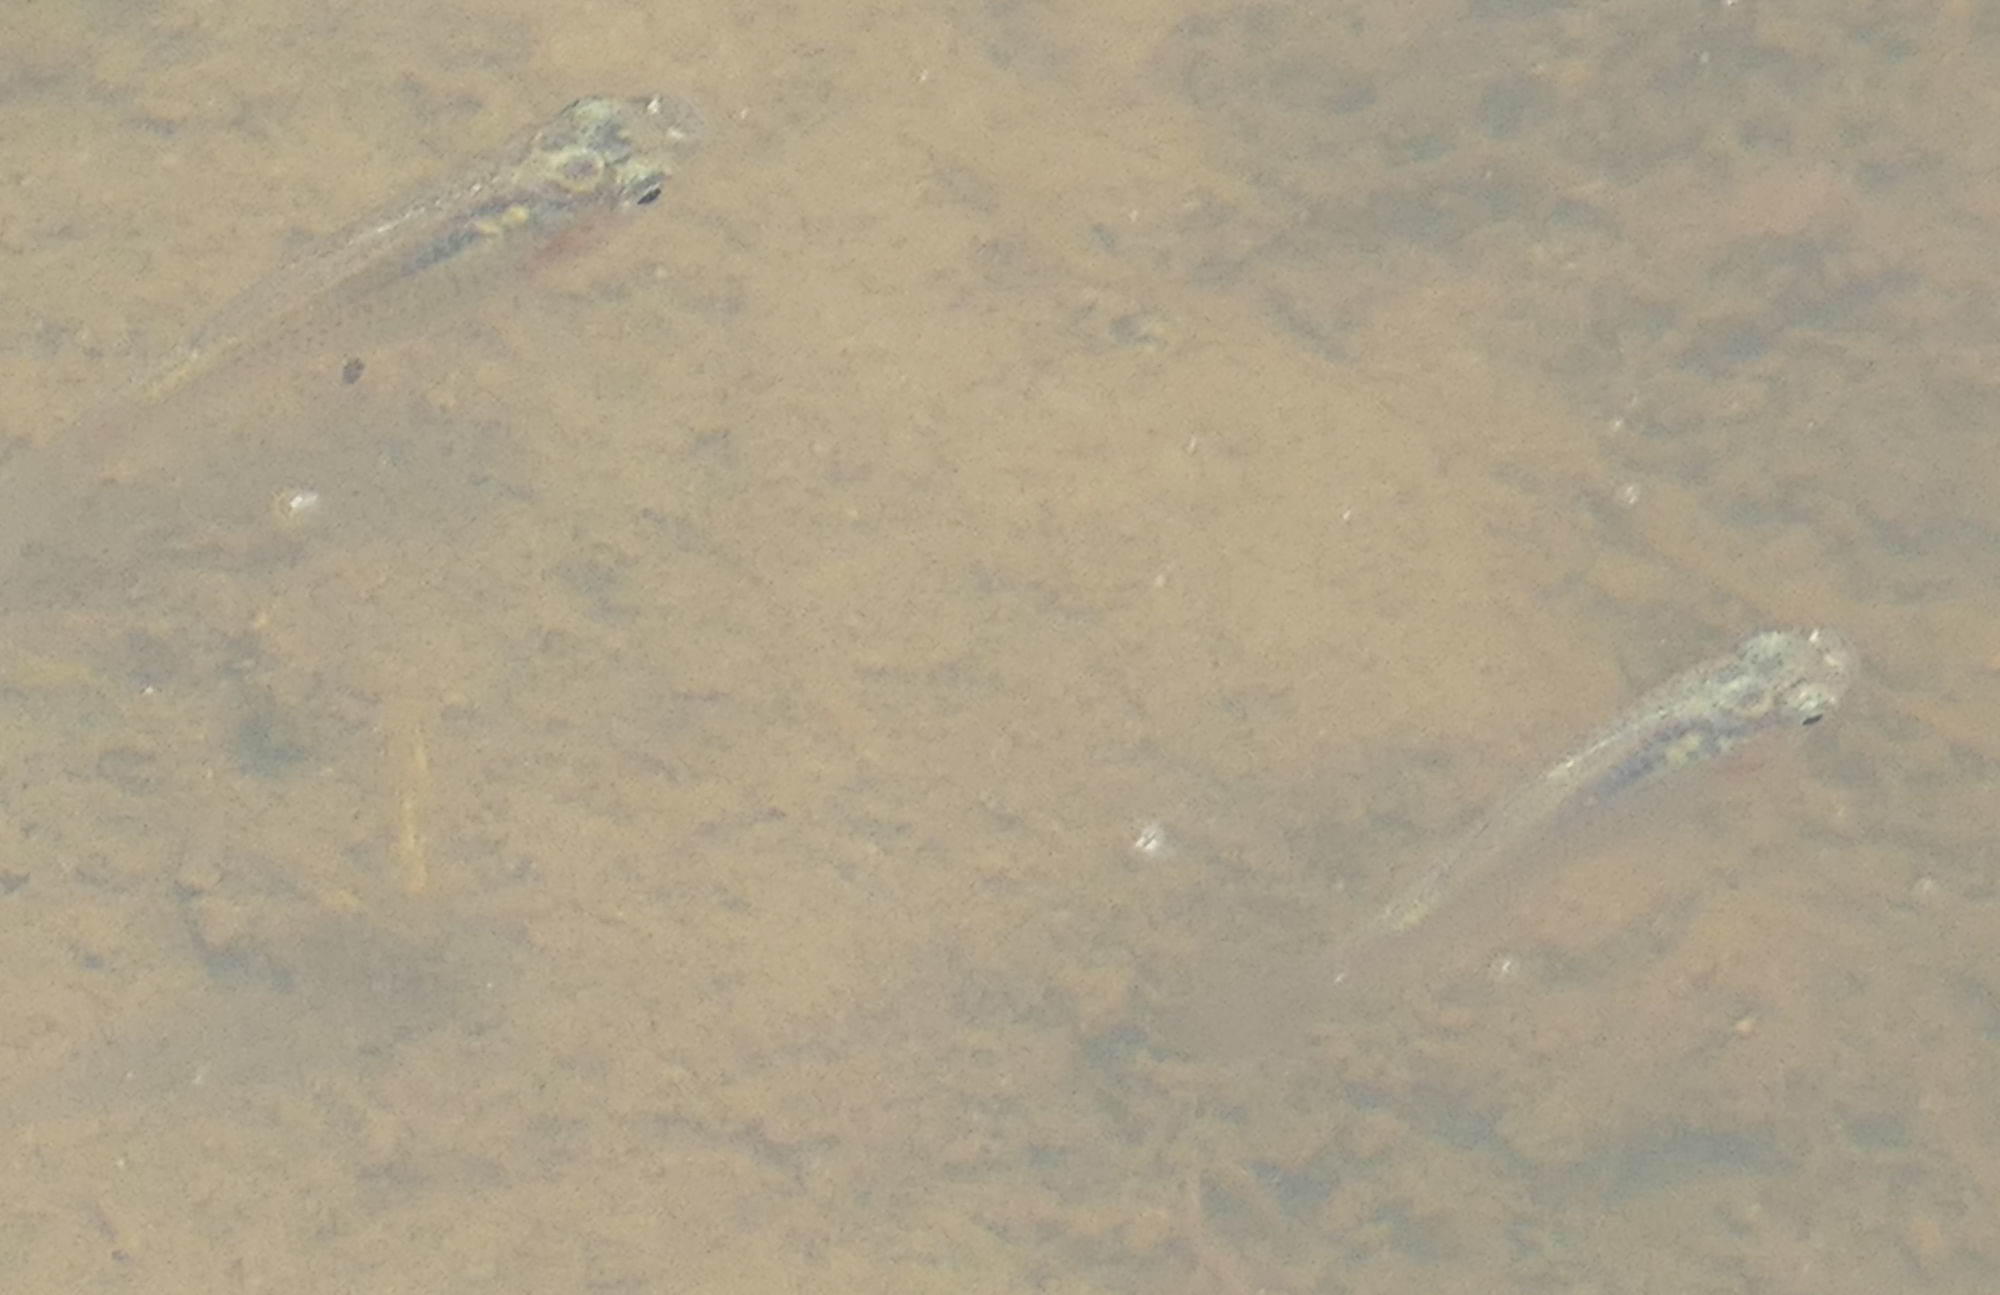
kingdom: Animalia
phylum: Chordata
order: Cyprinodontiformes
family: Poeciliidae
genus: Poecilia
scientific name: Poecilia latipinna
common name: Sailfin molly
